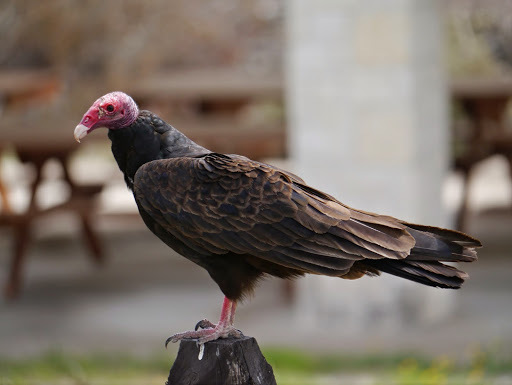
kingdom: Animalia
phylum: Chordata
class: Aves
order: Accipitriformes
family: Cathartidae
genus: Cathartes
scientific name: Cathartes aura
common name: Turkey vulture
